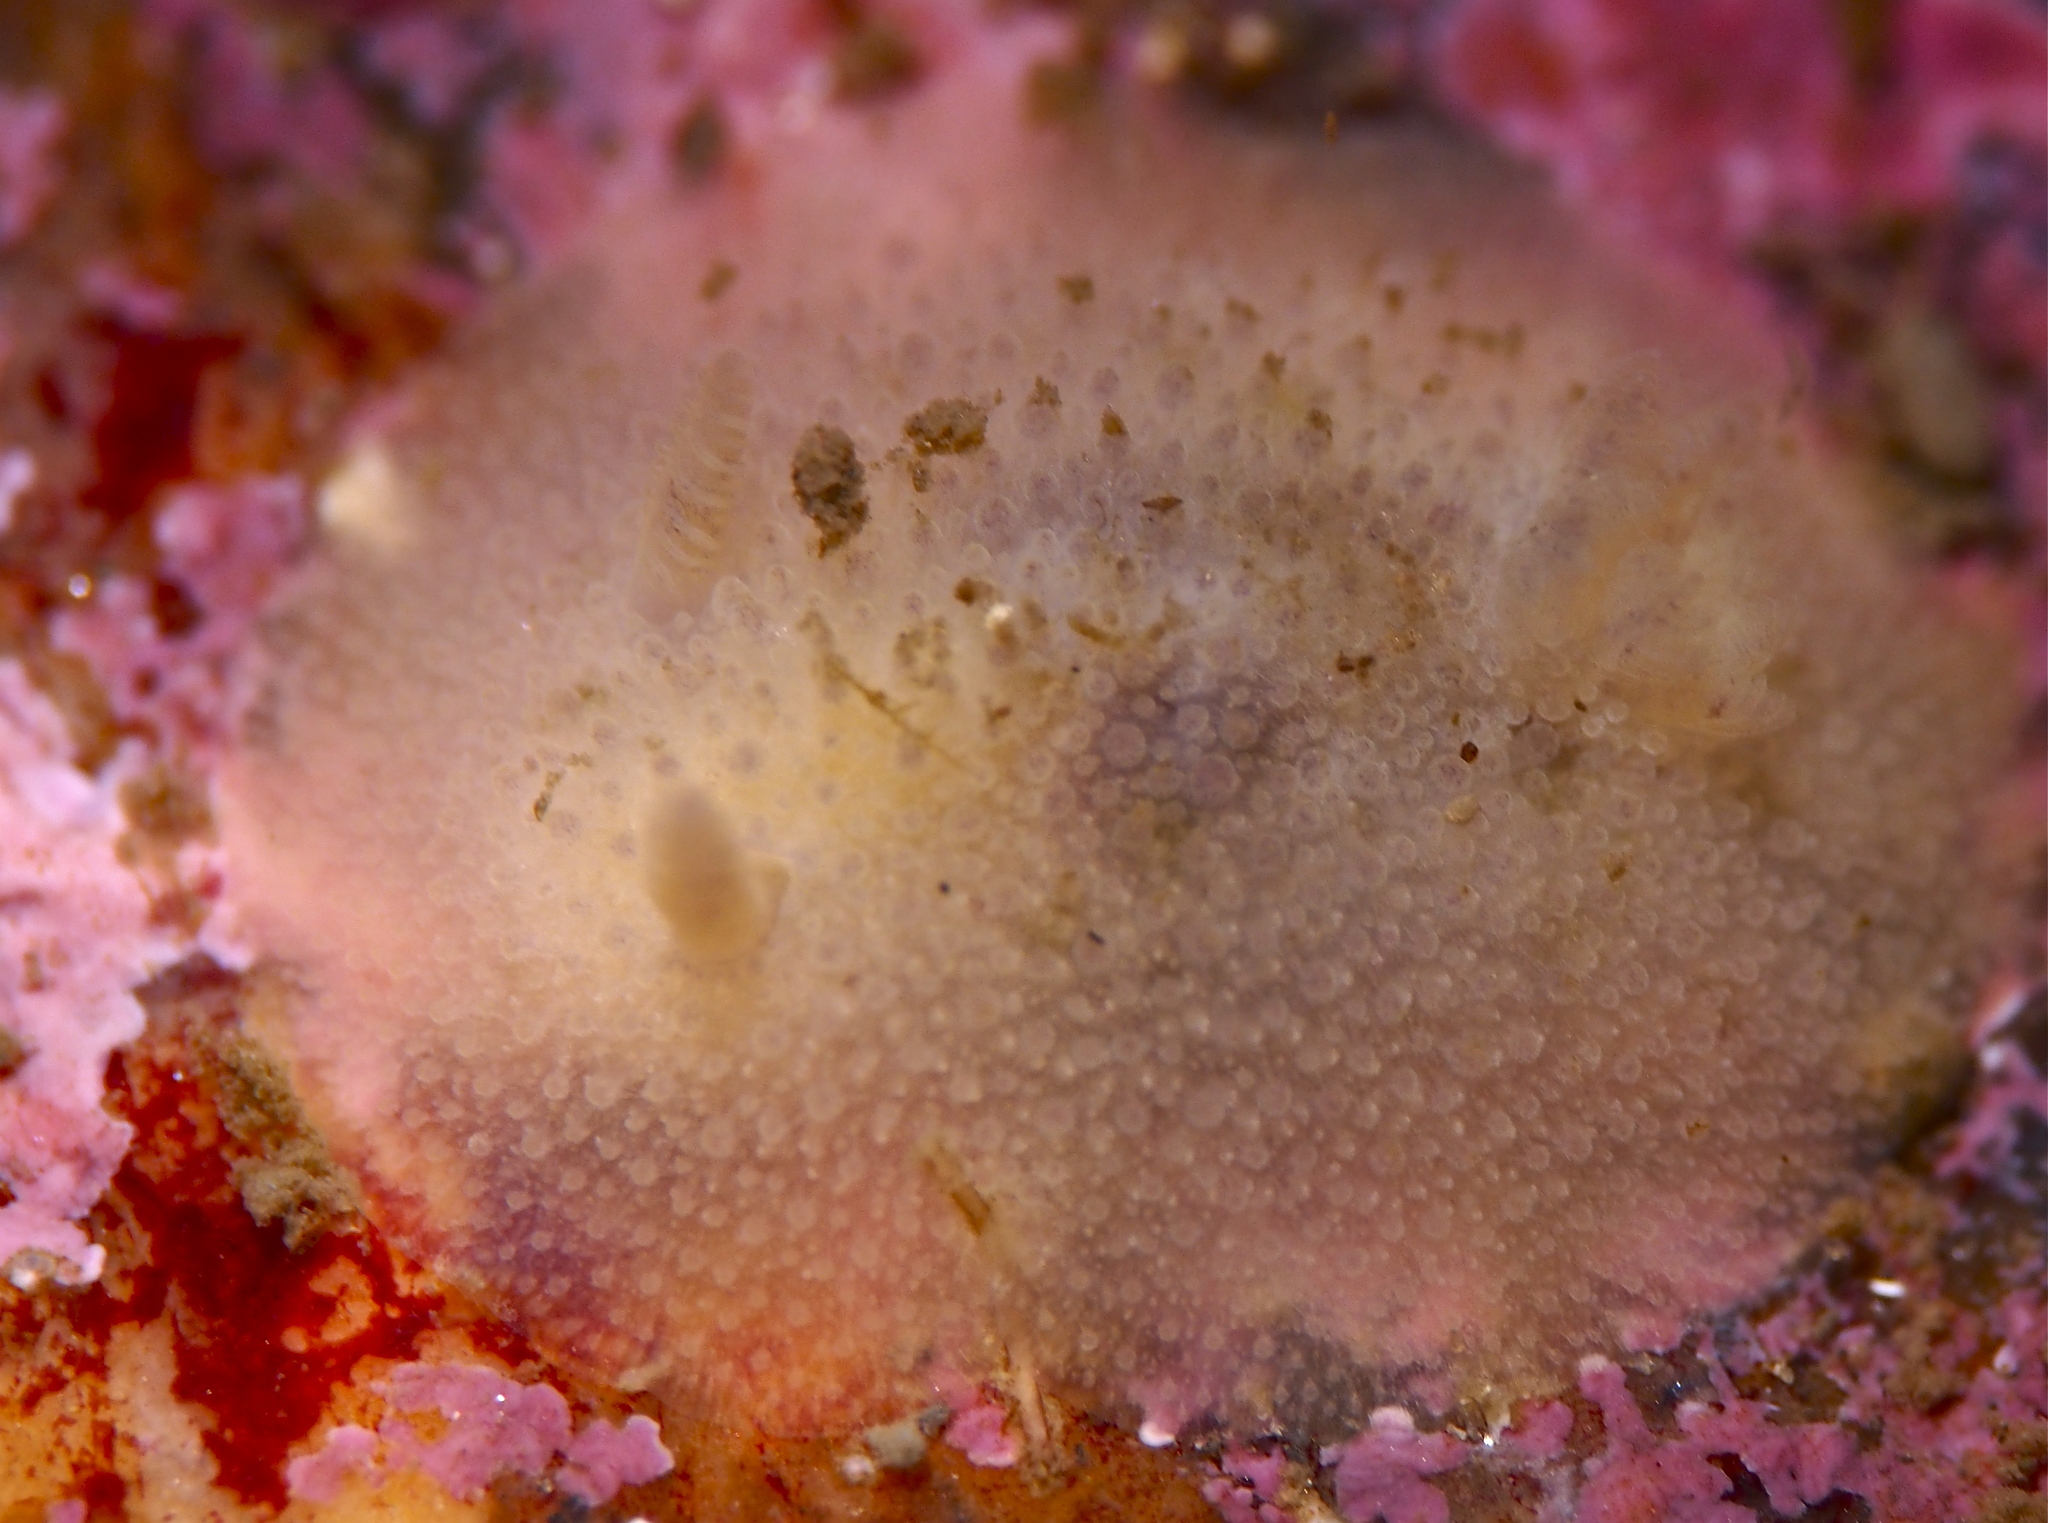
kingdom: Animalia
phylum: Mollusca
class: Gastropoda
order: Nudibranchia
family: Onchidorididae
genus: Acanthodoris
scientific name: Acanthodoris pilosa
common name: Hairy spiny doris
